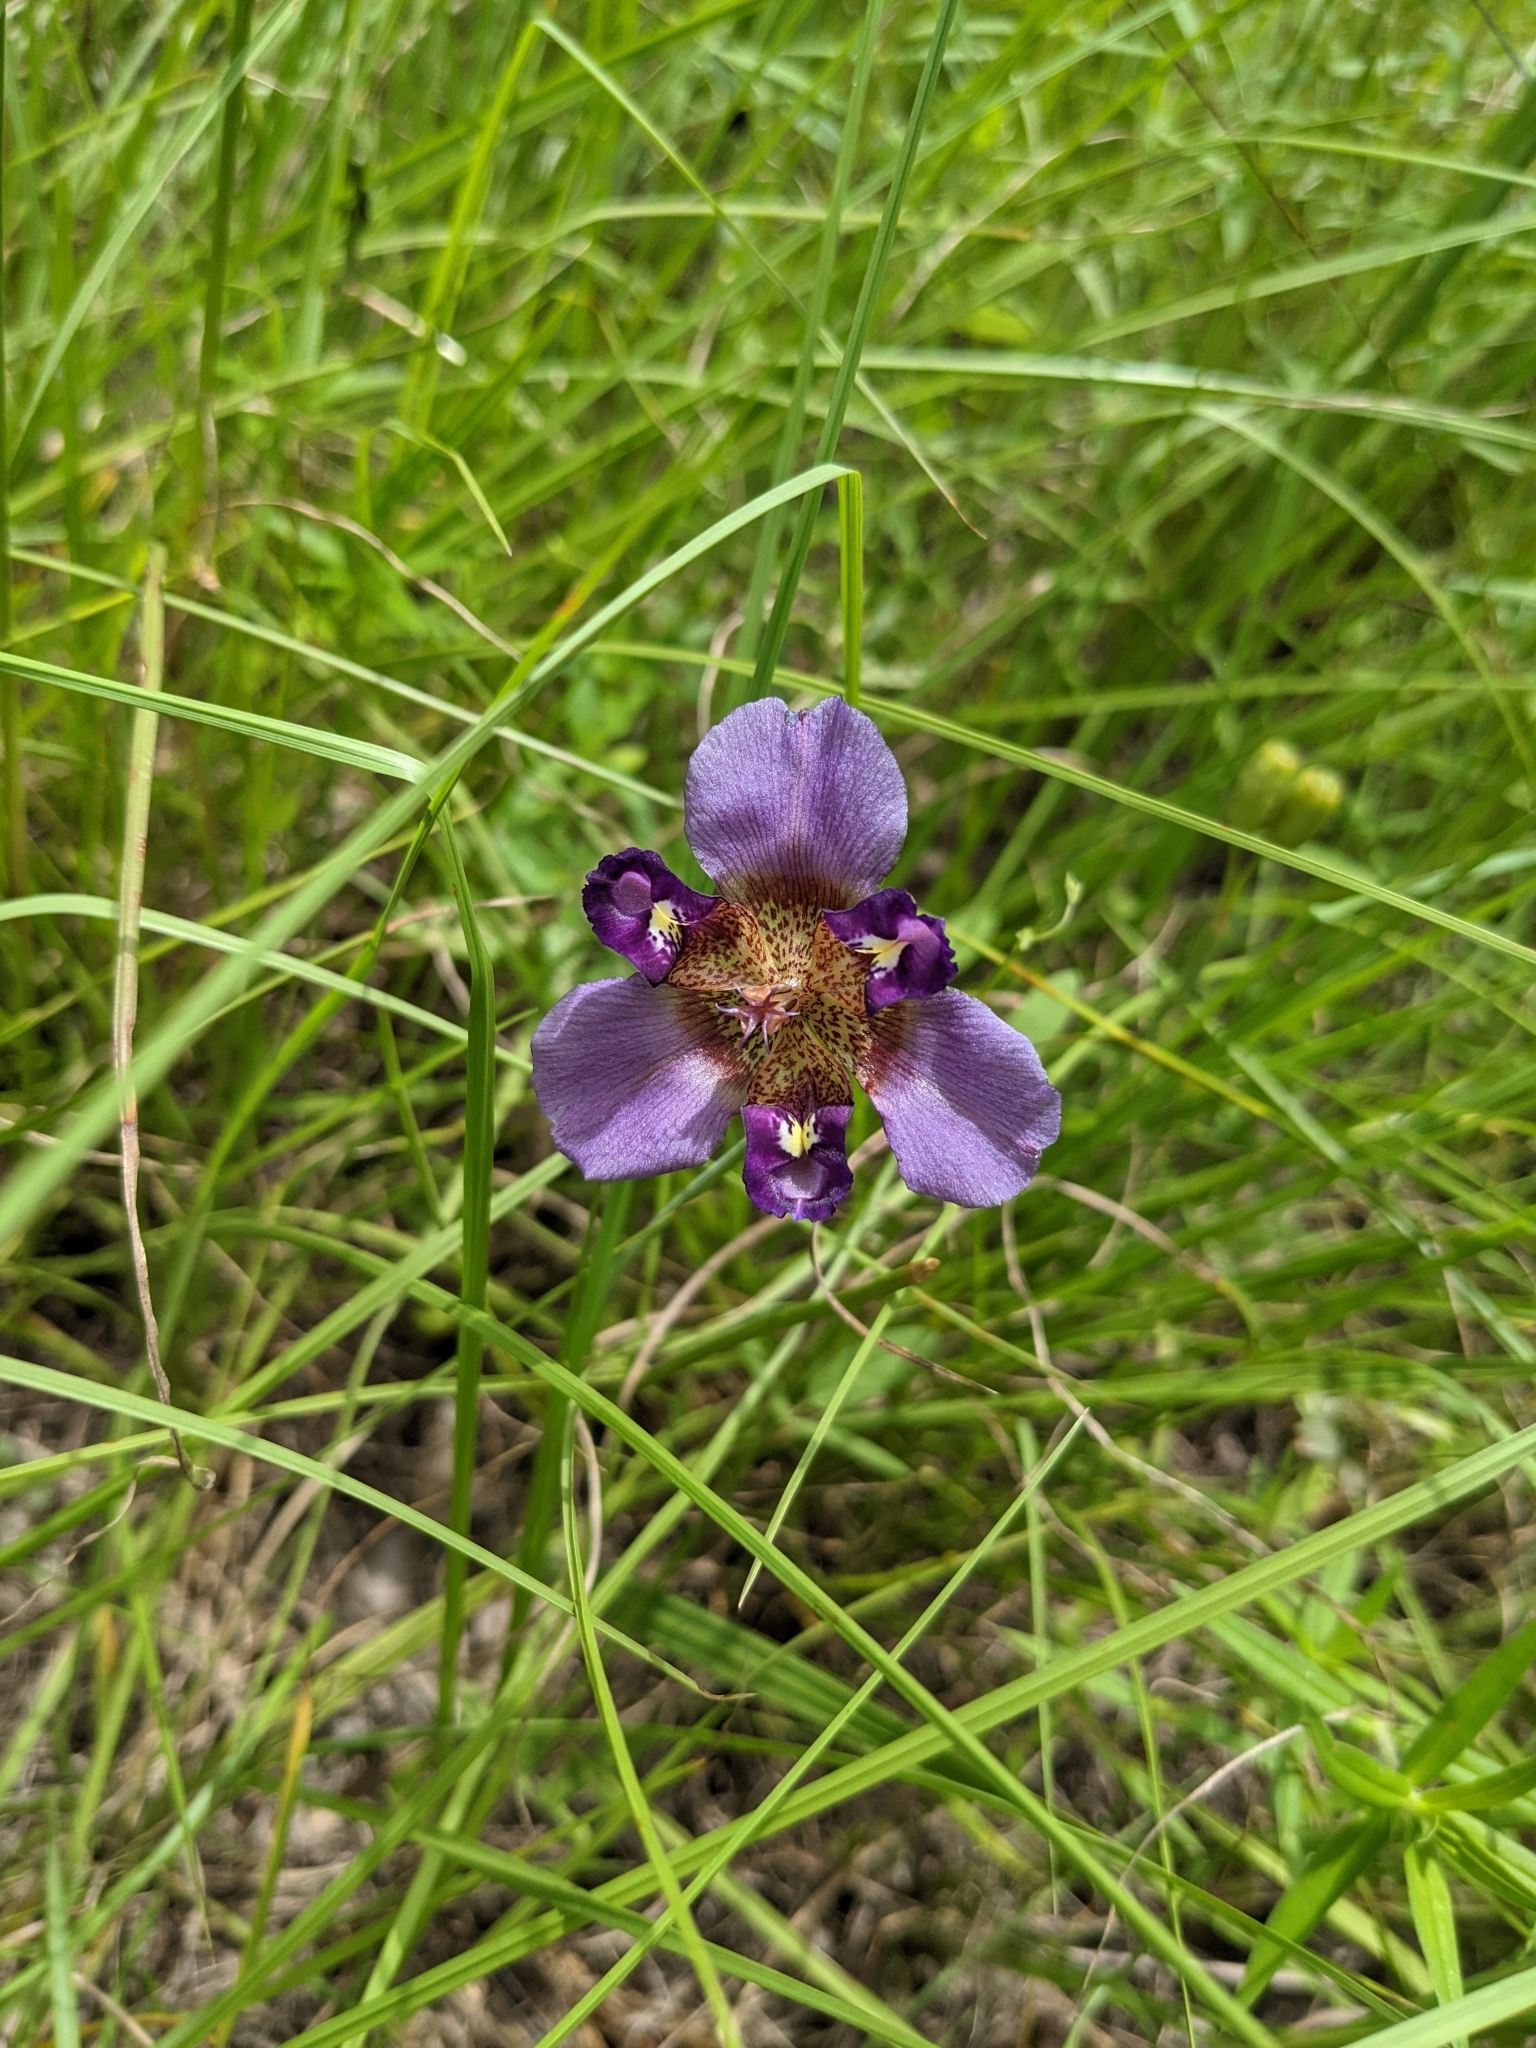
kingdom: Plantae
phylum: Tracheophyta
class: Liliopsida
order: Asparagales
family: Iridaceae
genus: Alophia
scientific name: Alophia drummondii
